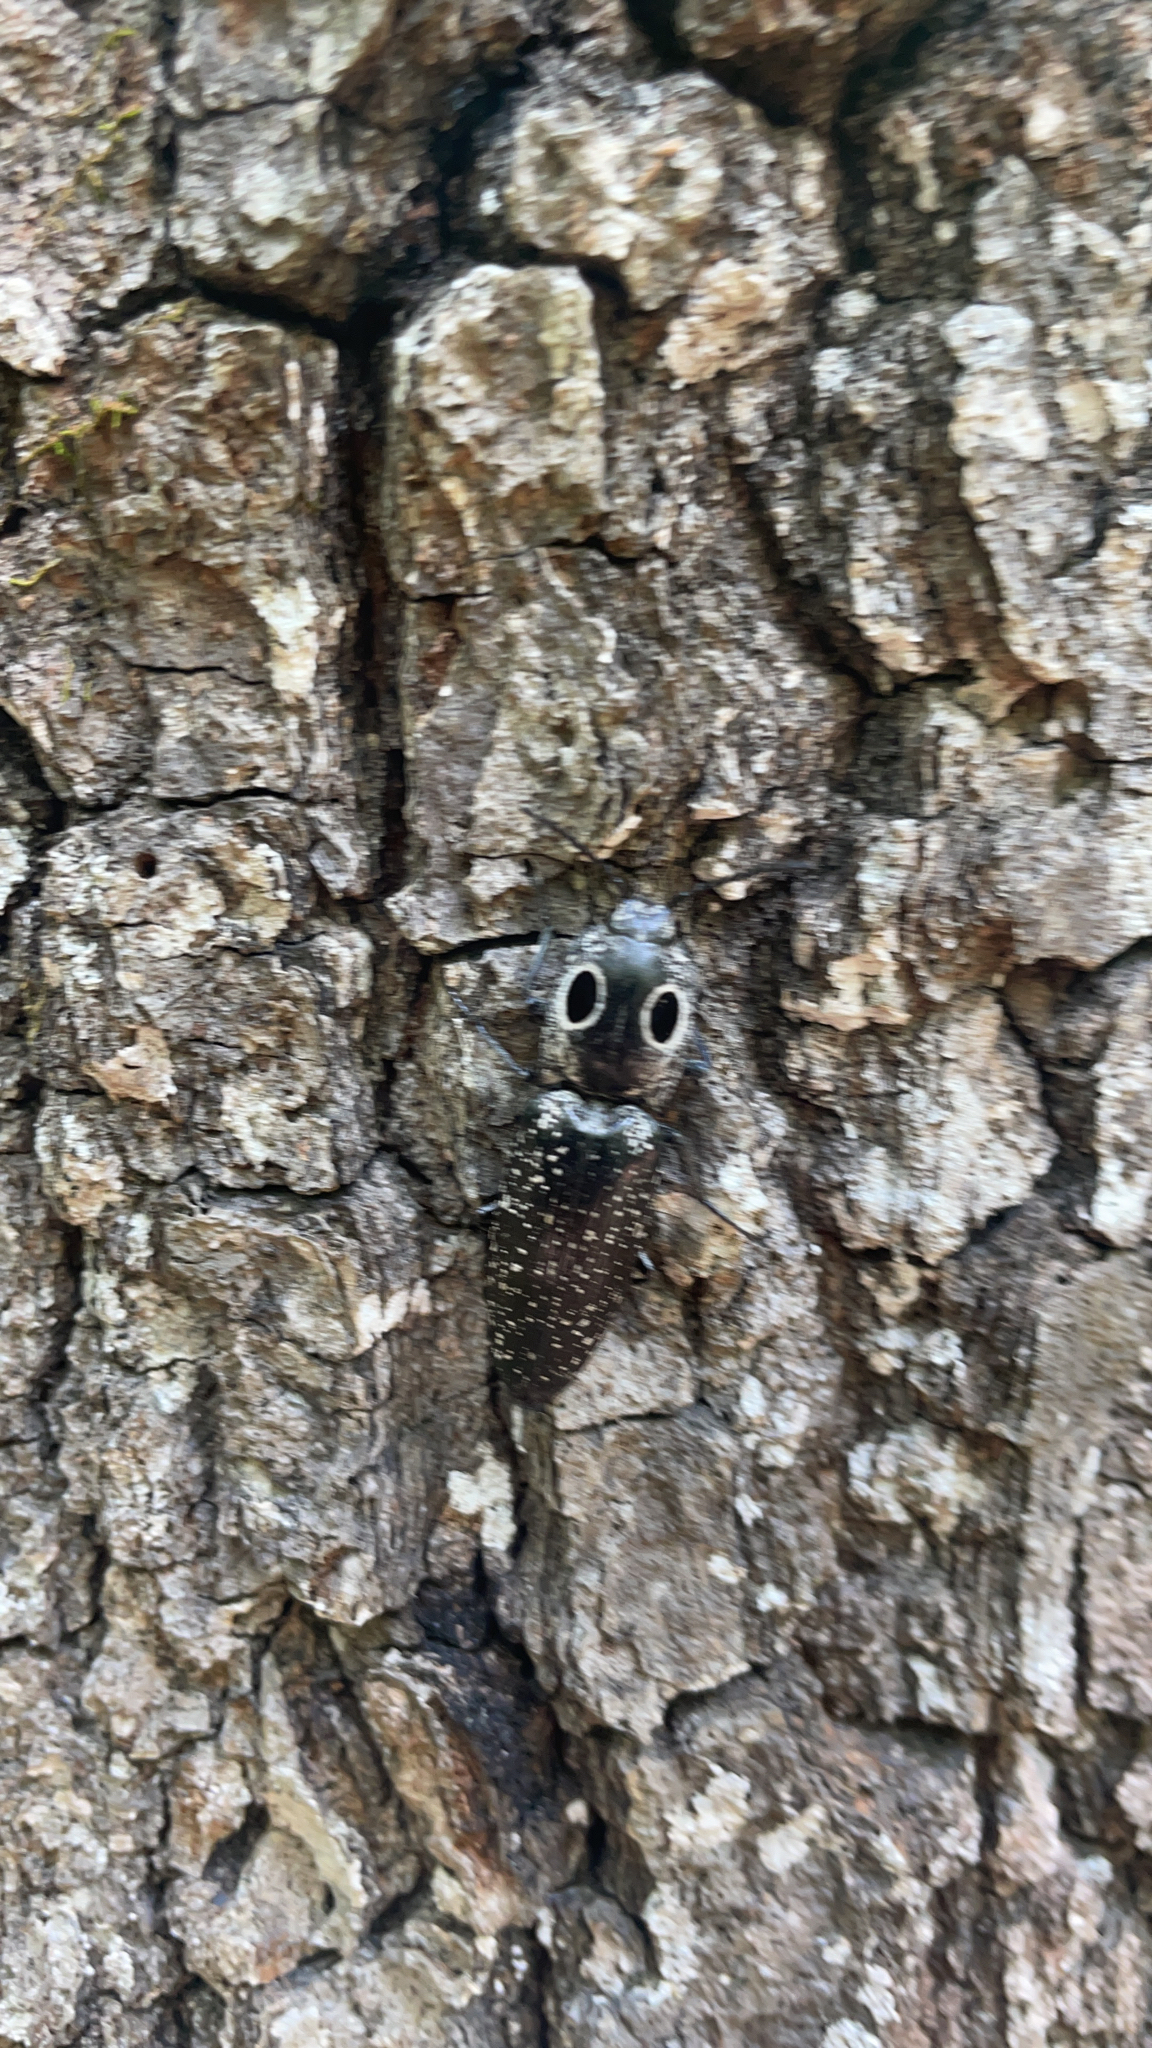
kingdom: Animalia
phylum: Arthropoda
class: Insecta
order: Coleoptera
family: Elateridae
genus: Alaus
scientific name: Alaus oculatus
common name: Eastern eyed click beetle
